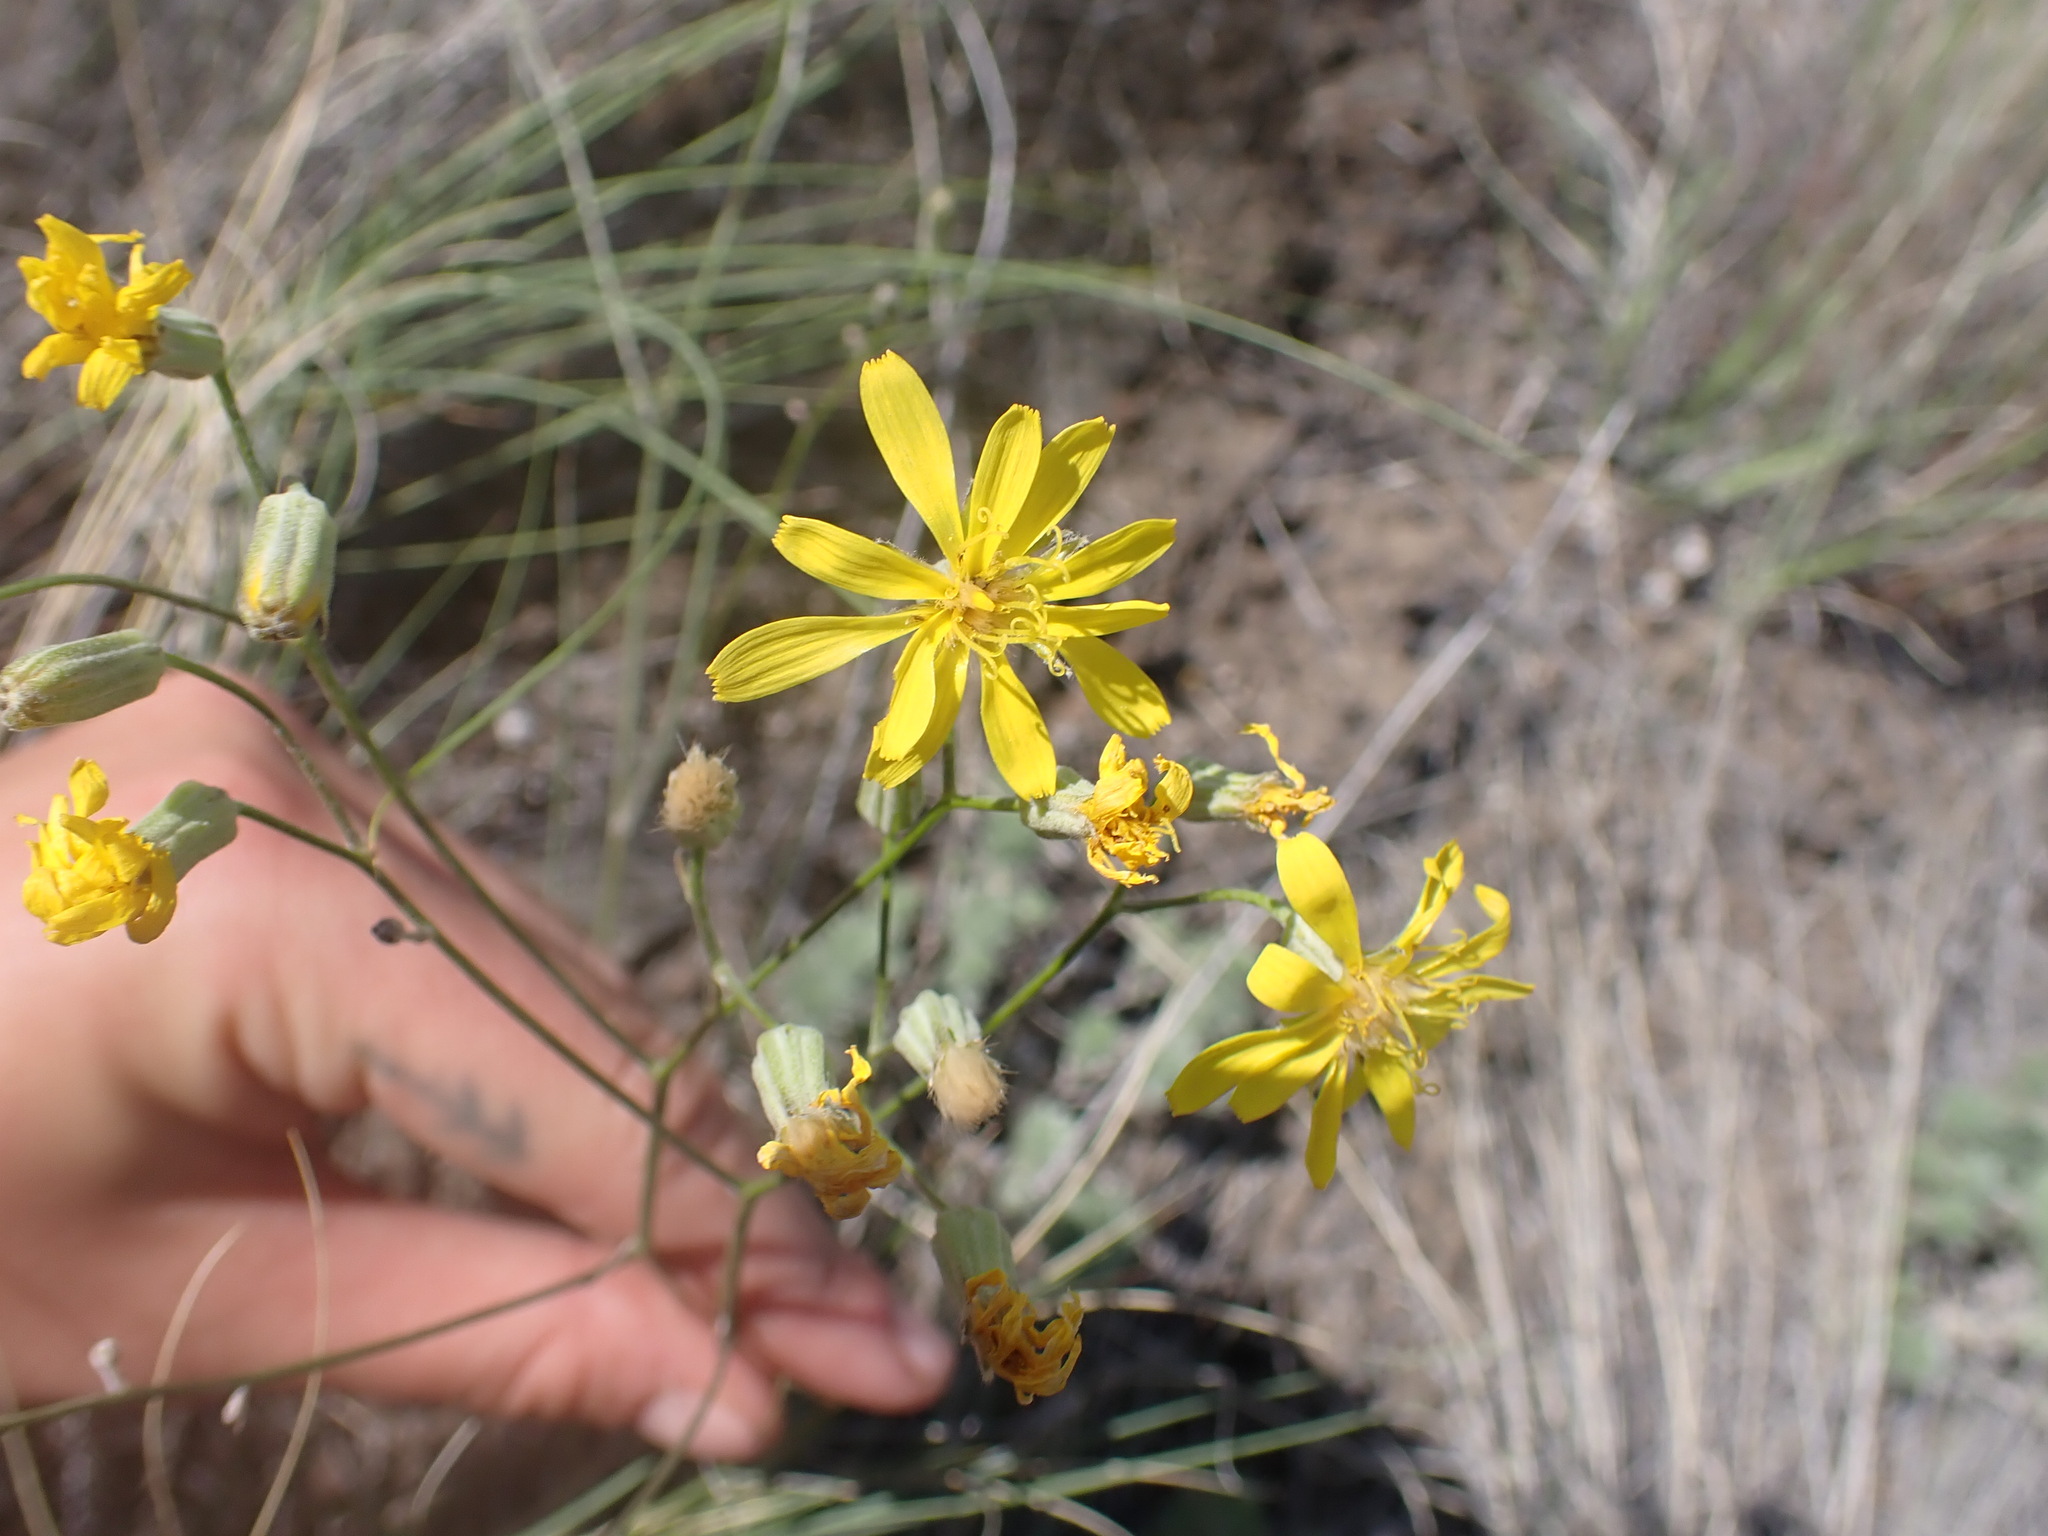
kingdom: Plantae
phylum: Tracheophyta
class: Magnoliopsida
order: Asterales
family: Asteraceae
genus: Crepis
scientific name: Crepis atribarba
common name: Dark hawk's-beard
